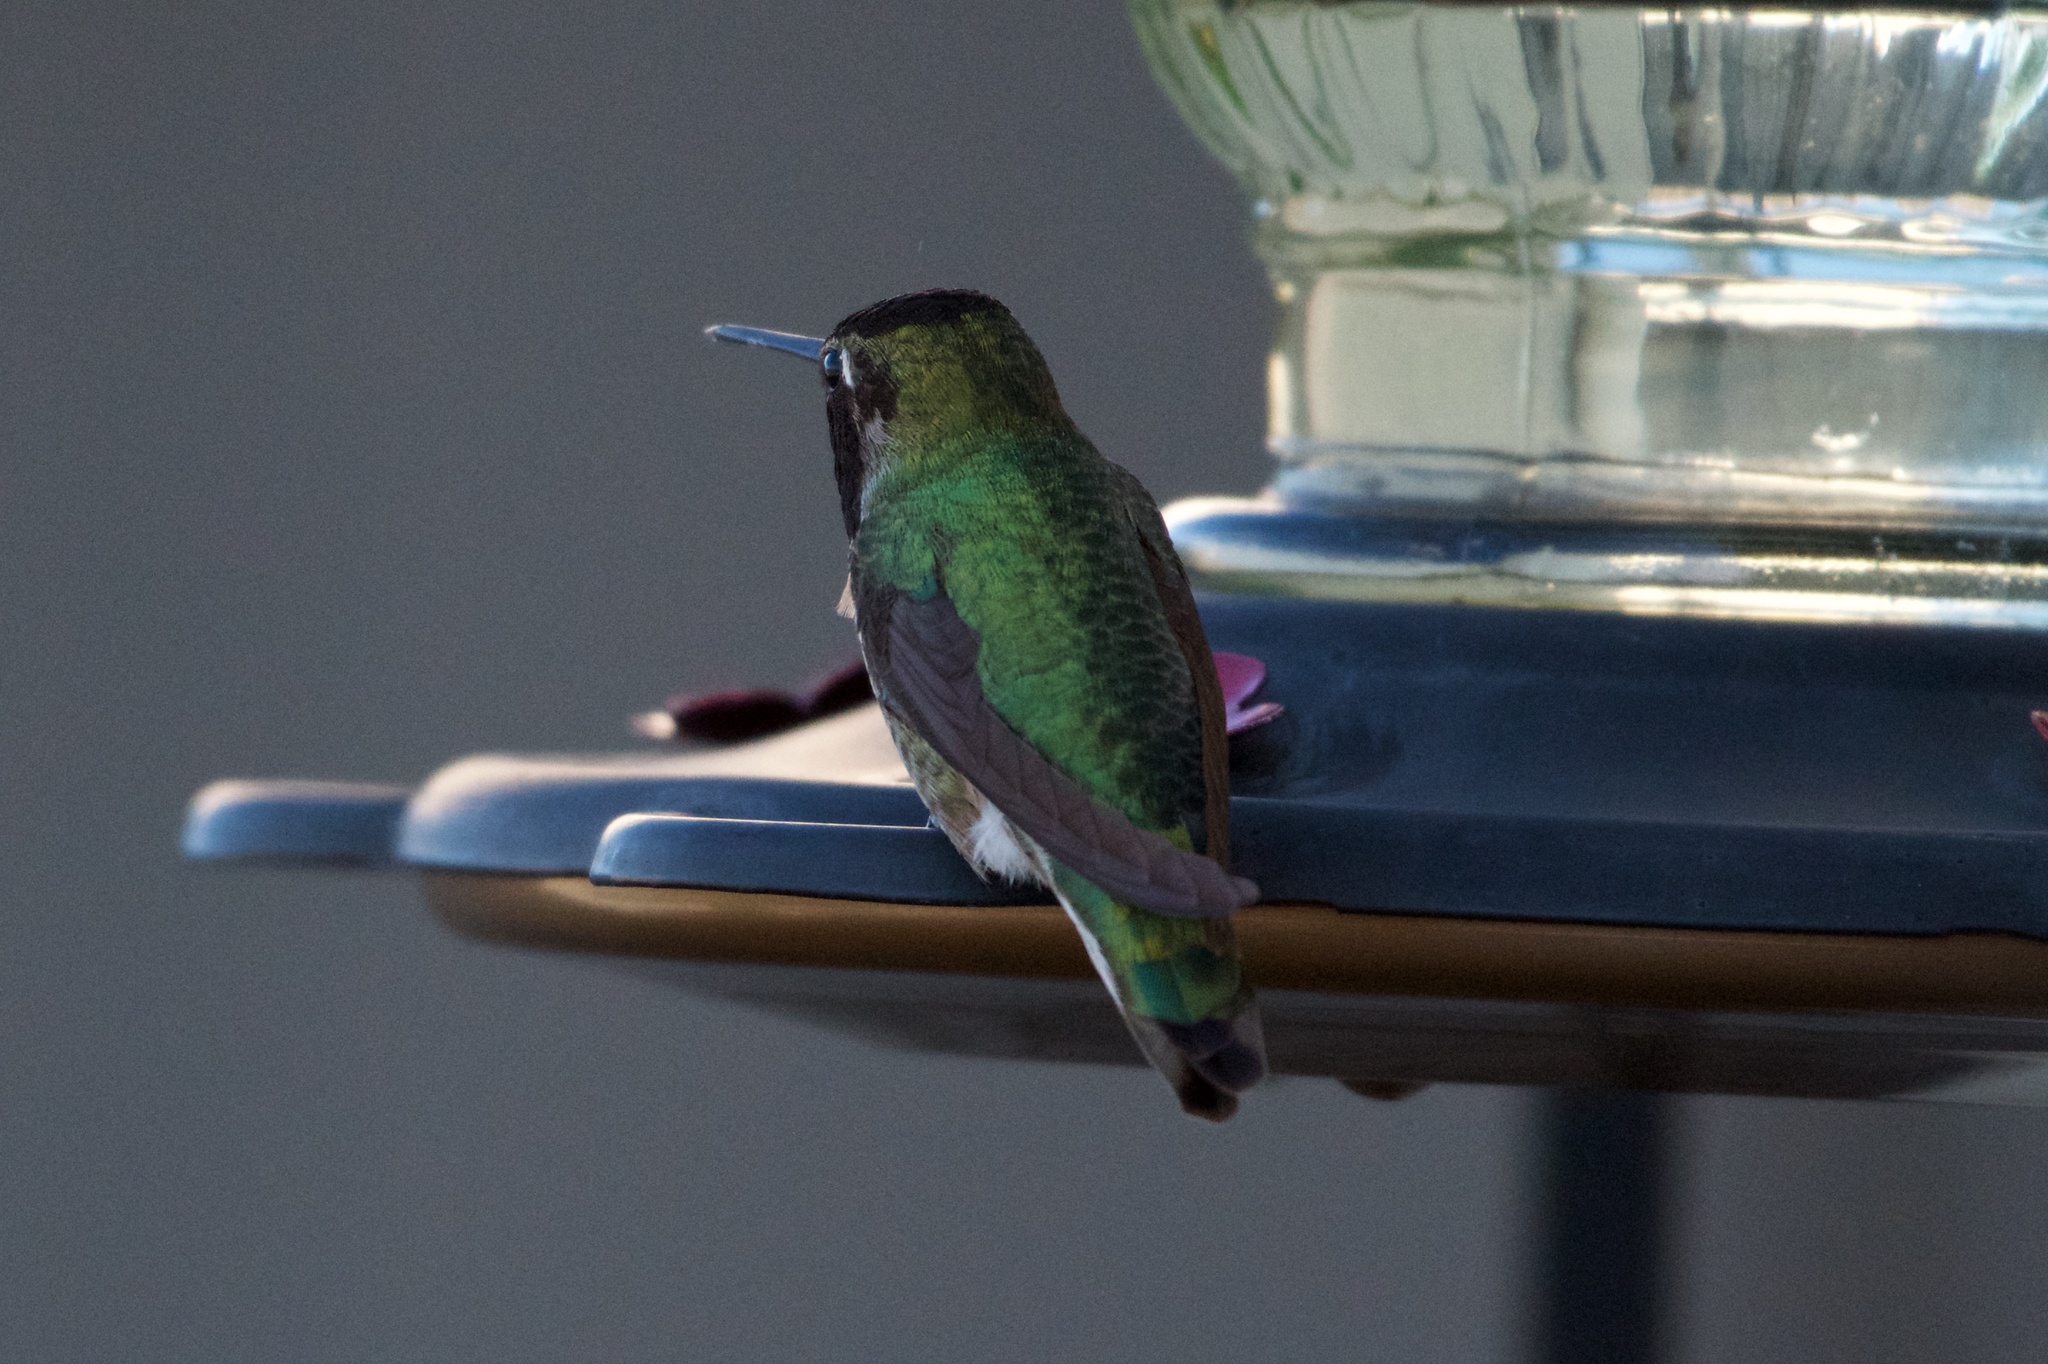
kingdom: Animalia
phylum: Chordata
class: Aves
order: Apodiformes
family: Trochilidae
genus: Calypte
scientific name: Calypte anna
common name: Anna's hummingbird
